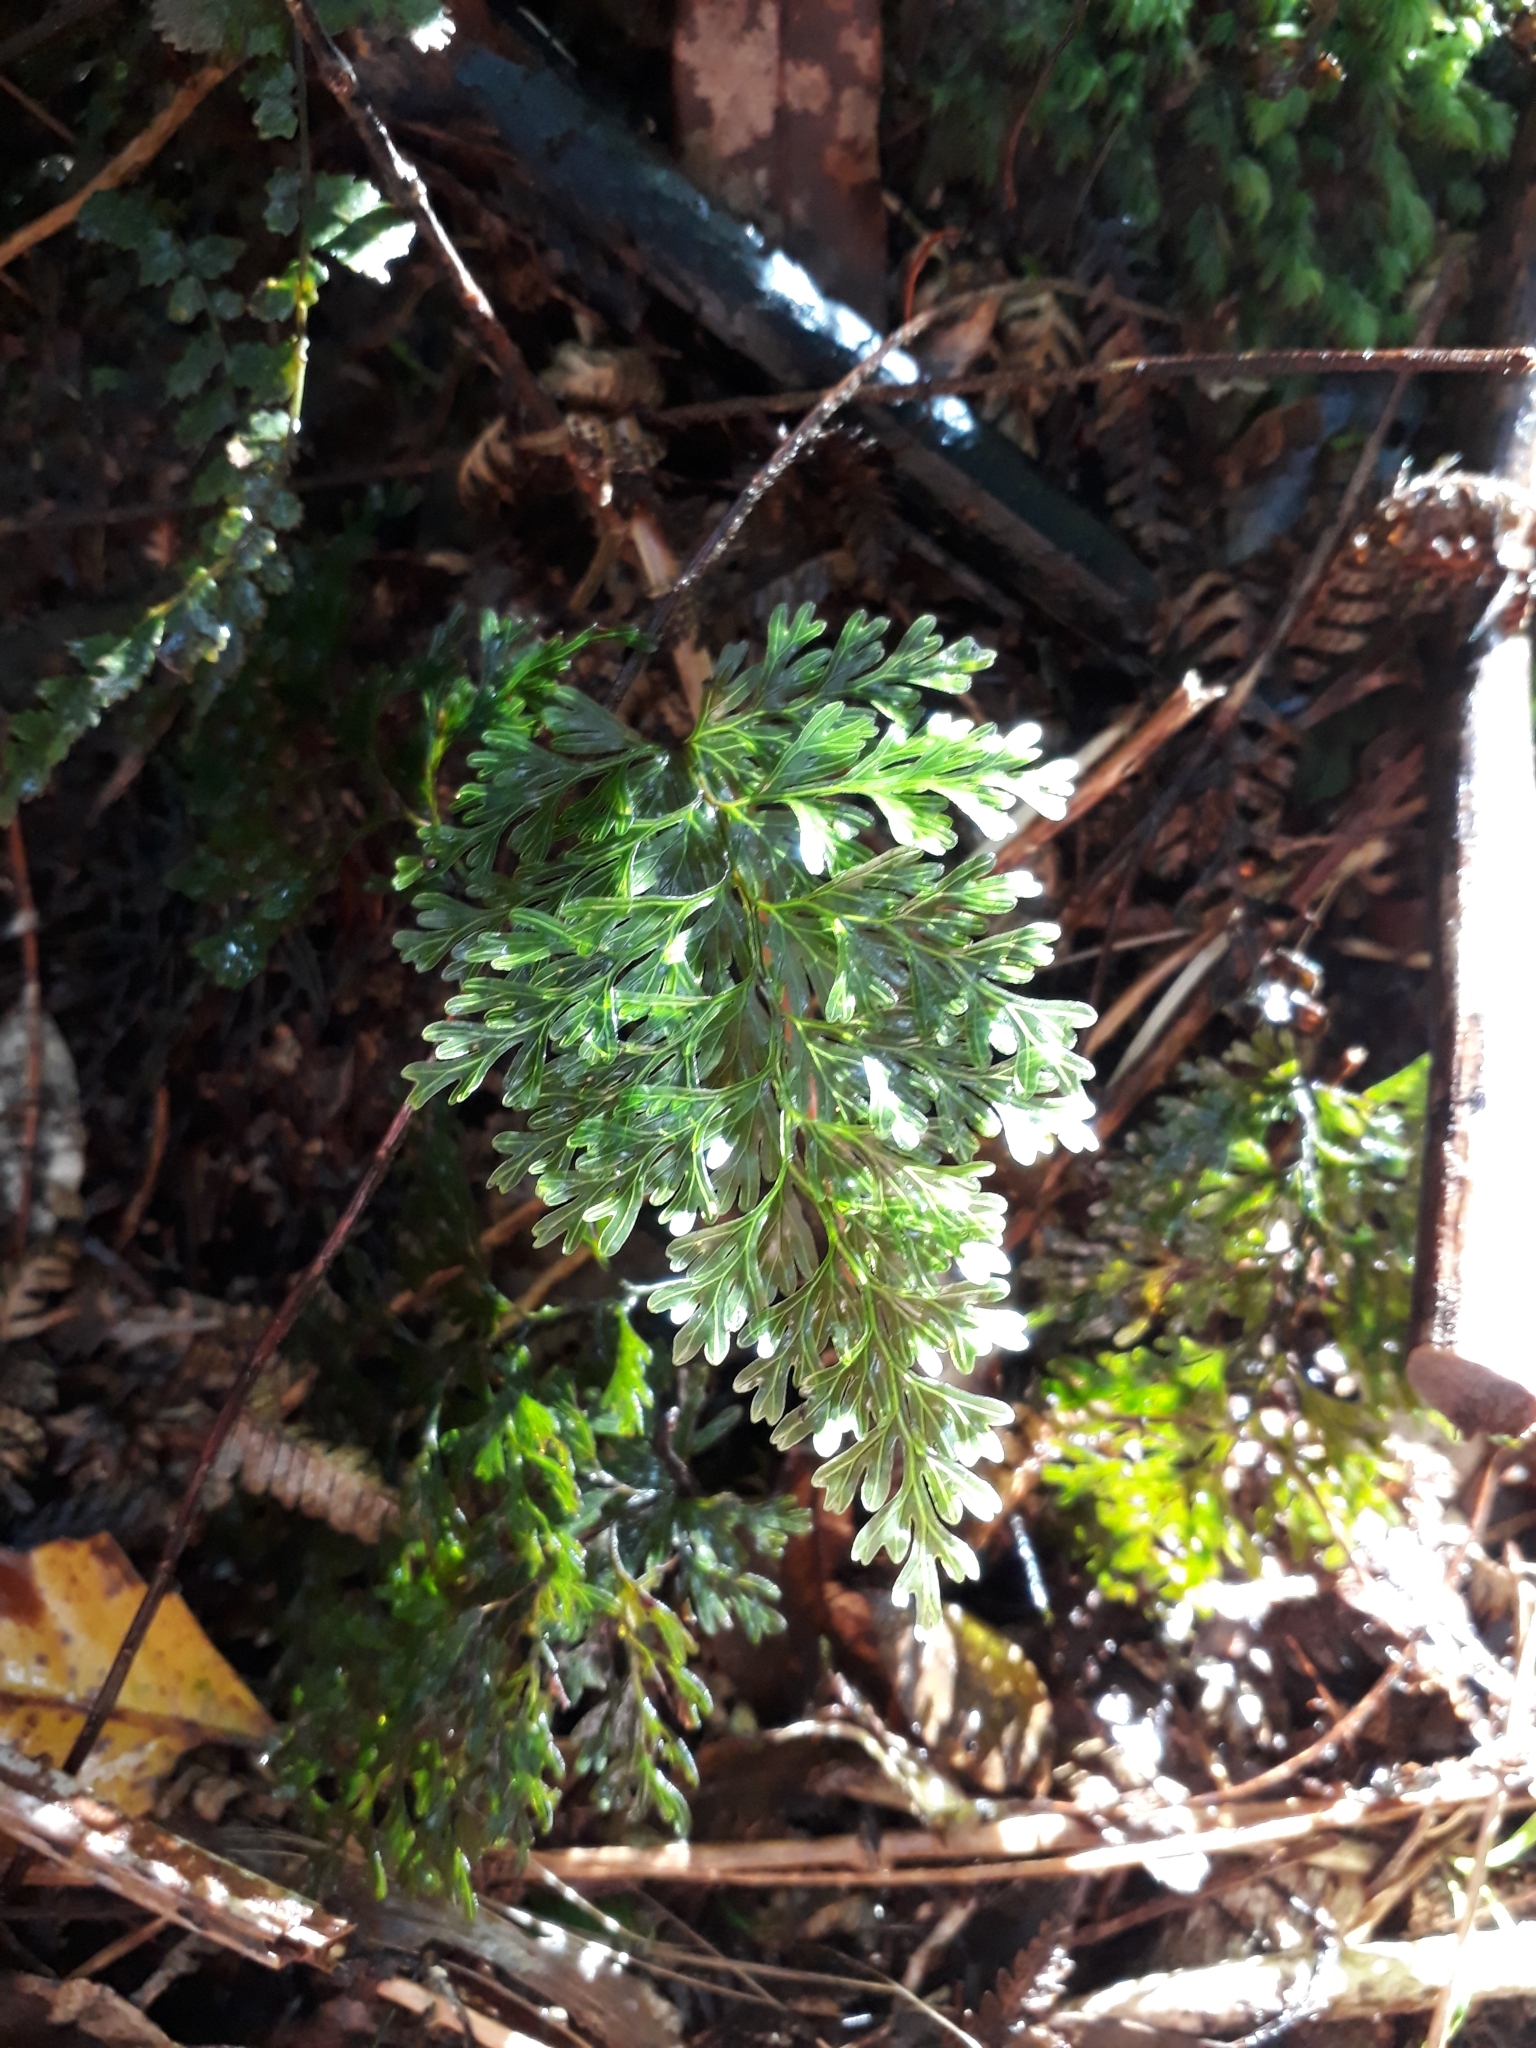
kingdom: Plantae
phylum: Tracheophyta
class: Polypodiopsida
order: Hymenophyllales
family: Hymenophyllaceae
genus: Hymenophyllum
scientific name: Hymenophyllum demissum
